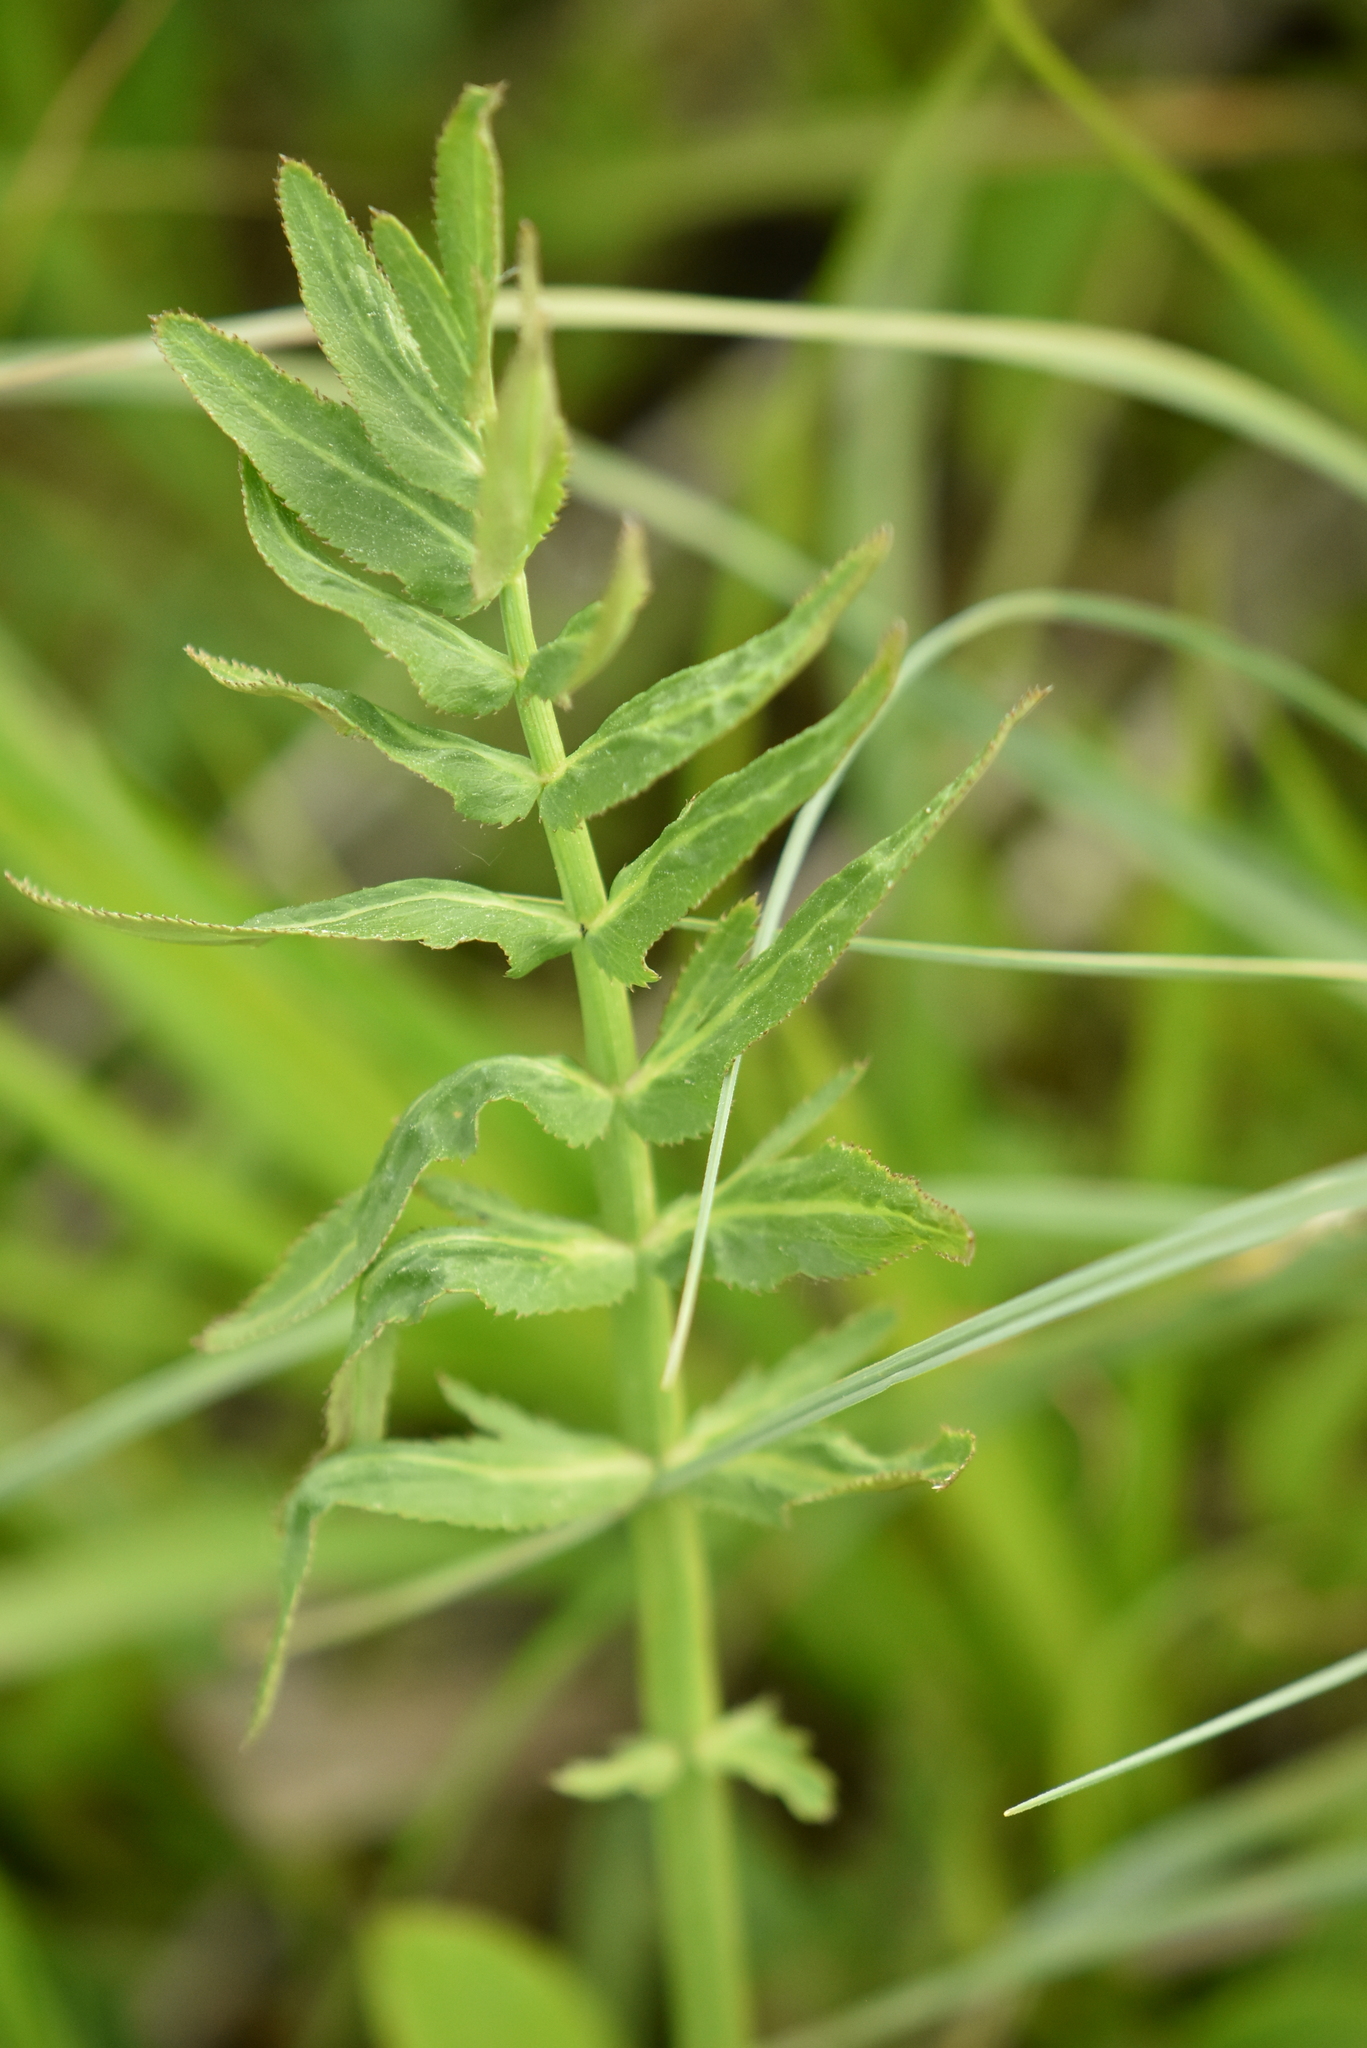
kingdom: Plantae
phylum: Tracheophyta
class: Magnoliopsida
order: Apiales
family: Apiaceae
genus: Sium
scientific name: Sium latifolium
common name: Greater water-parsnip
